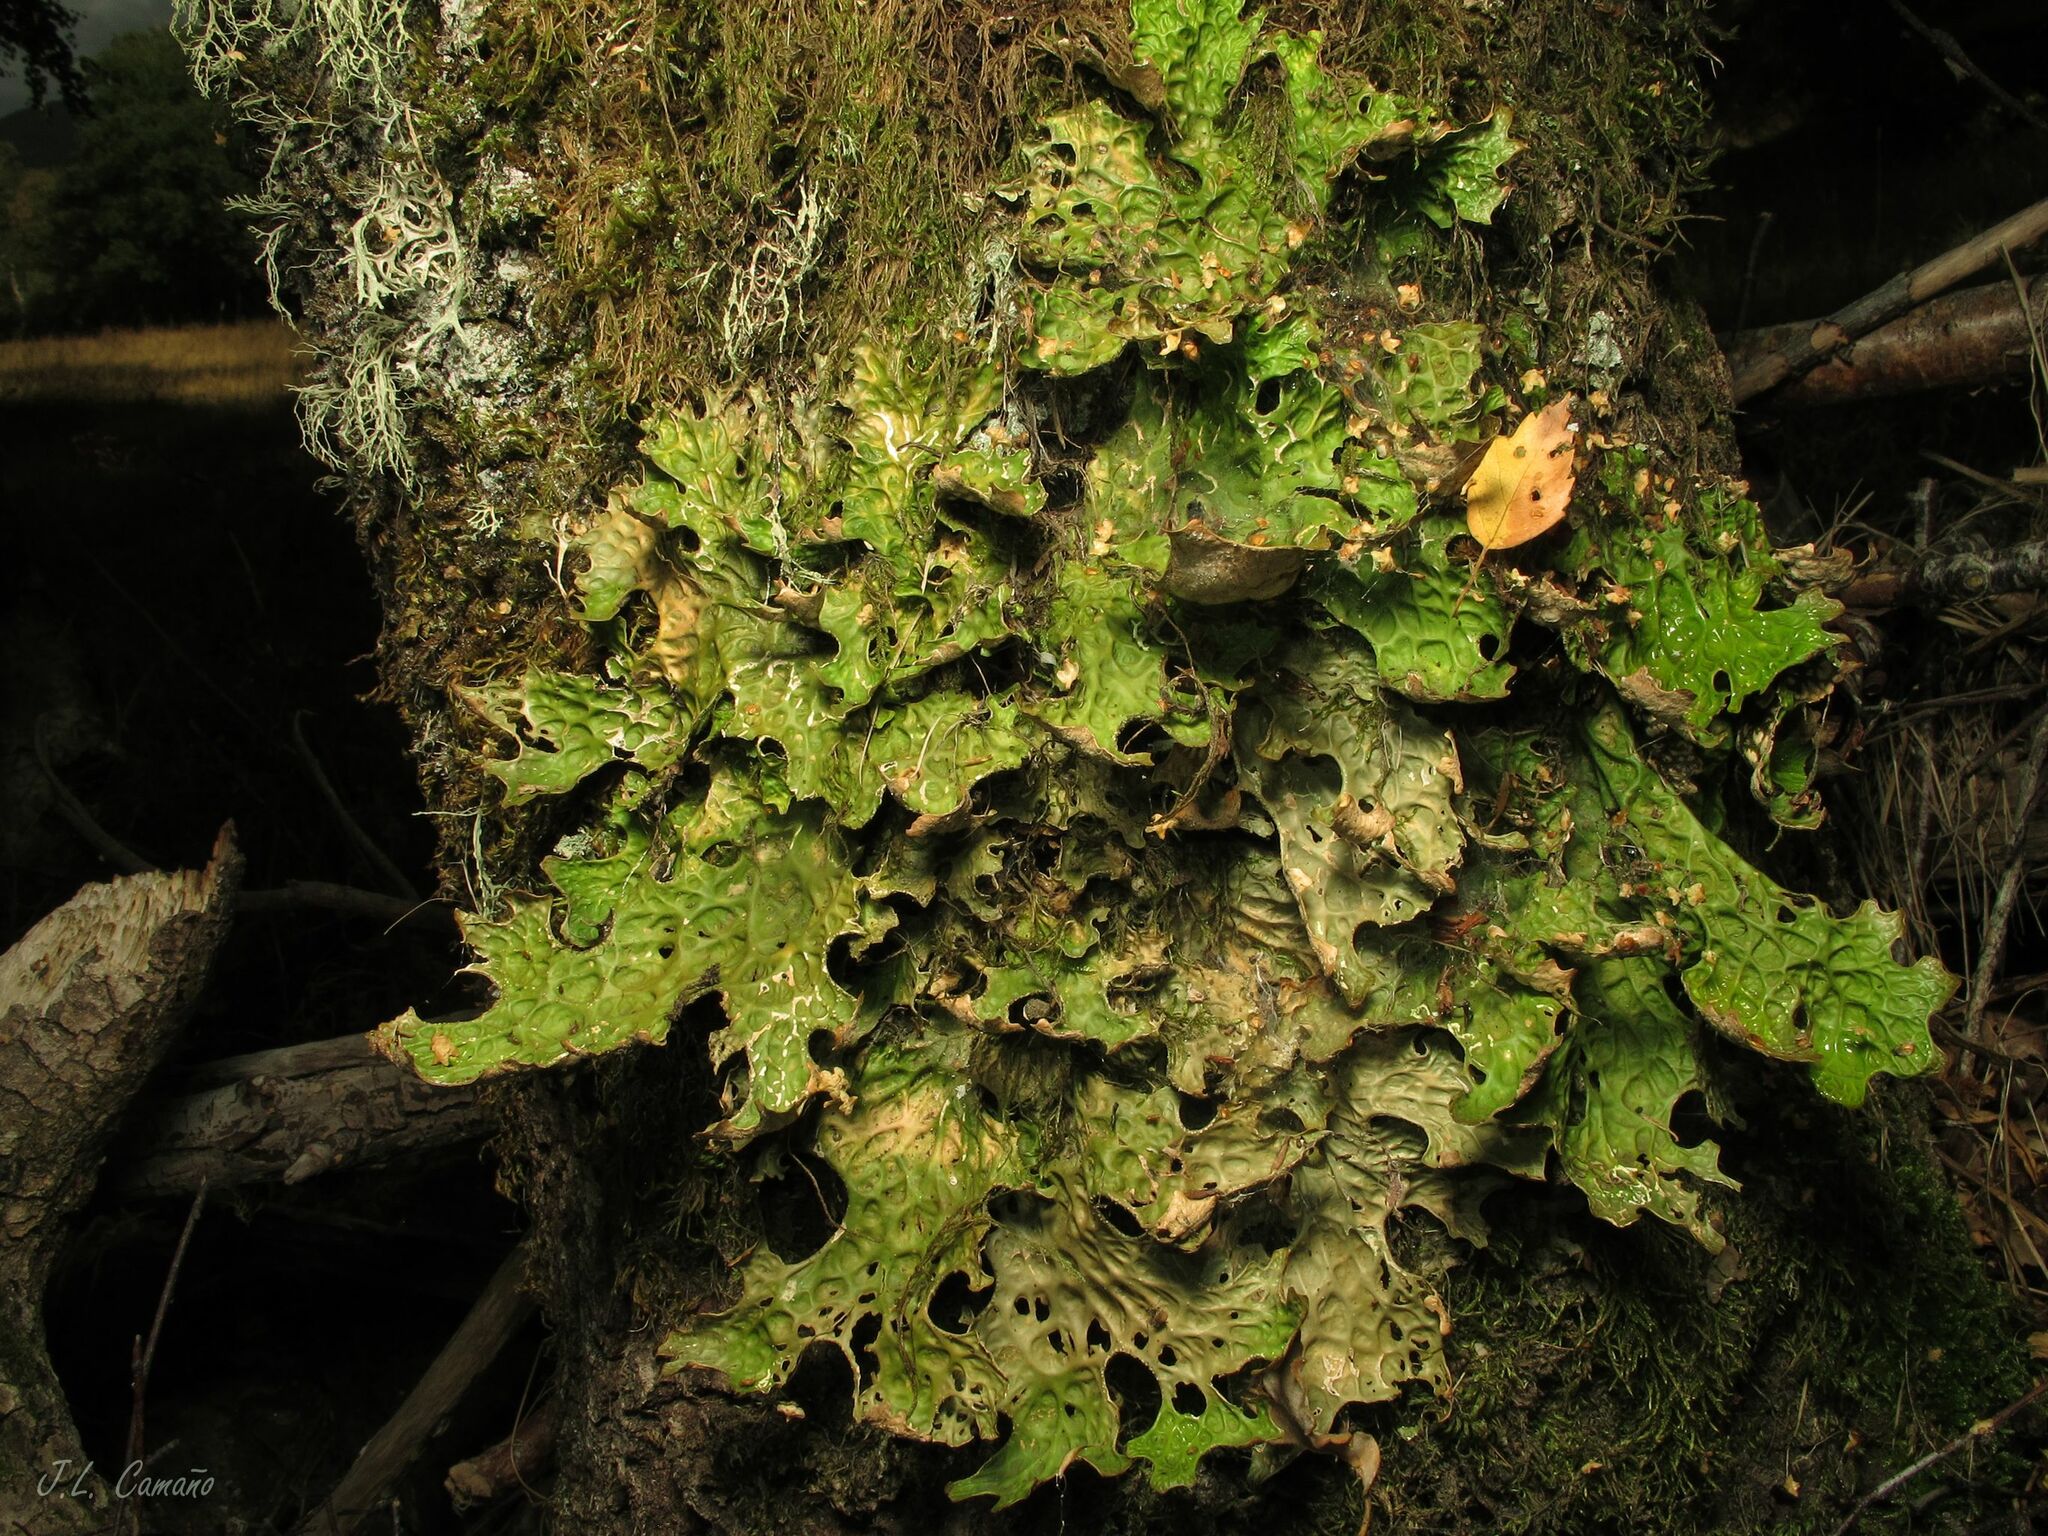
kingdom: Fungi
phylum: Ascomycota
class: Lecanoromycetes
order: Peltigerales
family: Lobariaceae
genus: Lobaria
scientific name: Lobaria pulmonaria
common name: Lungwort
